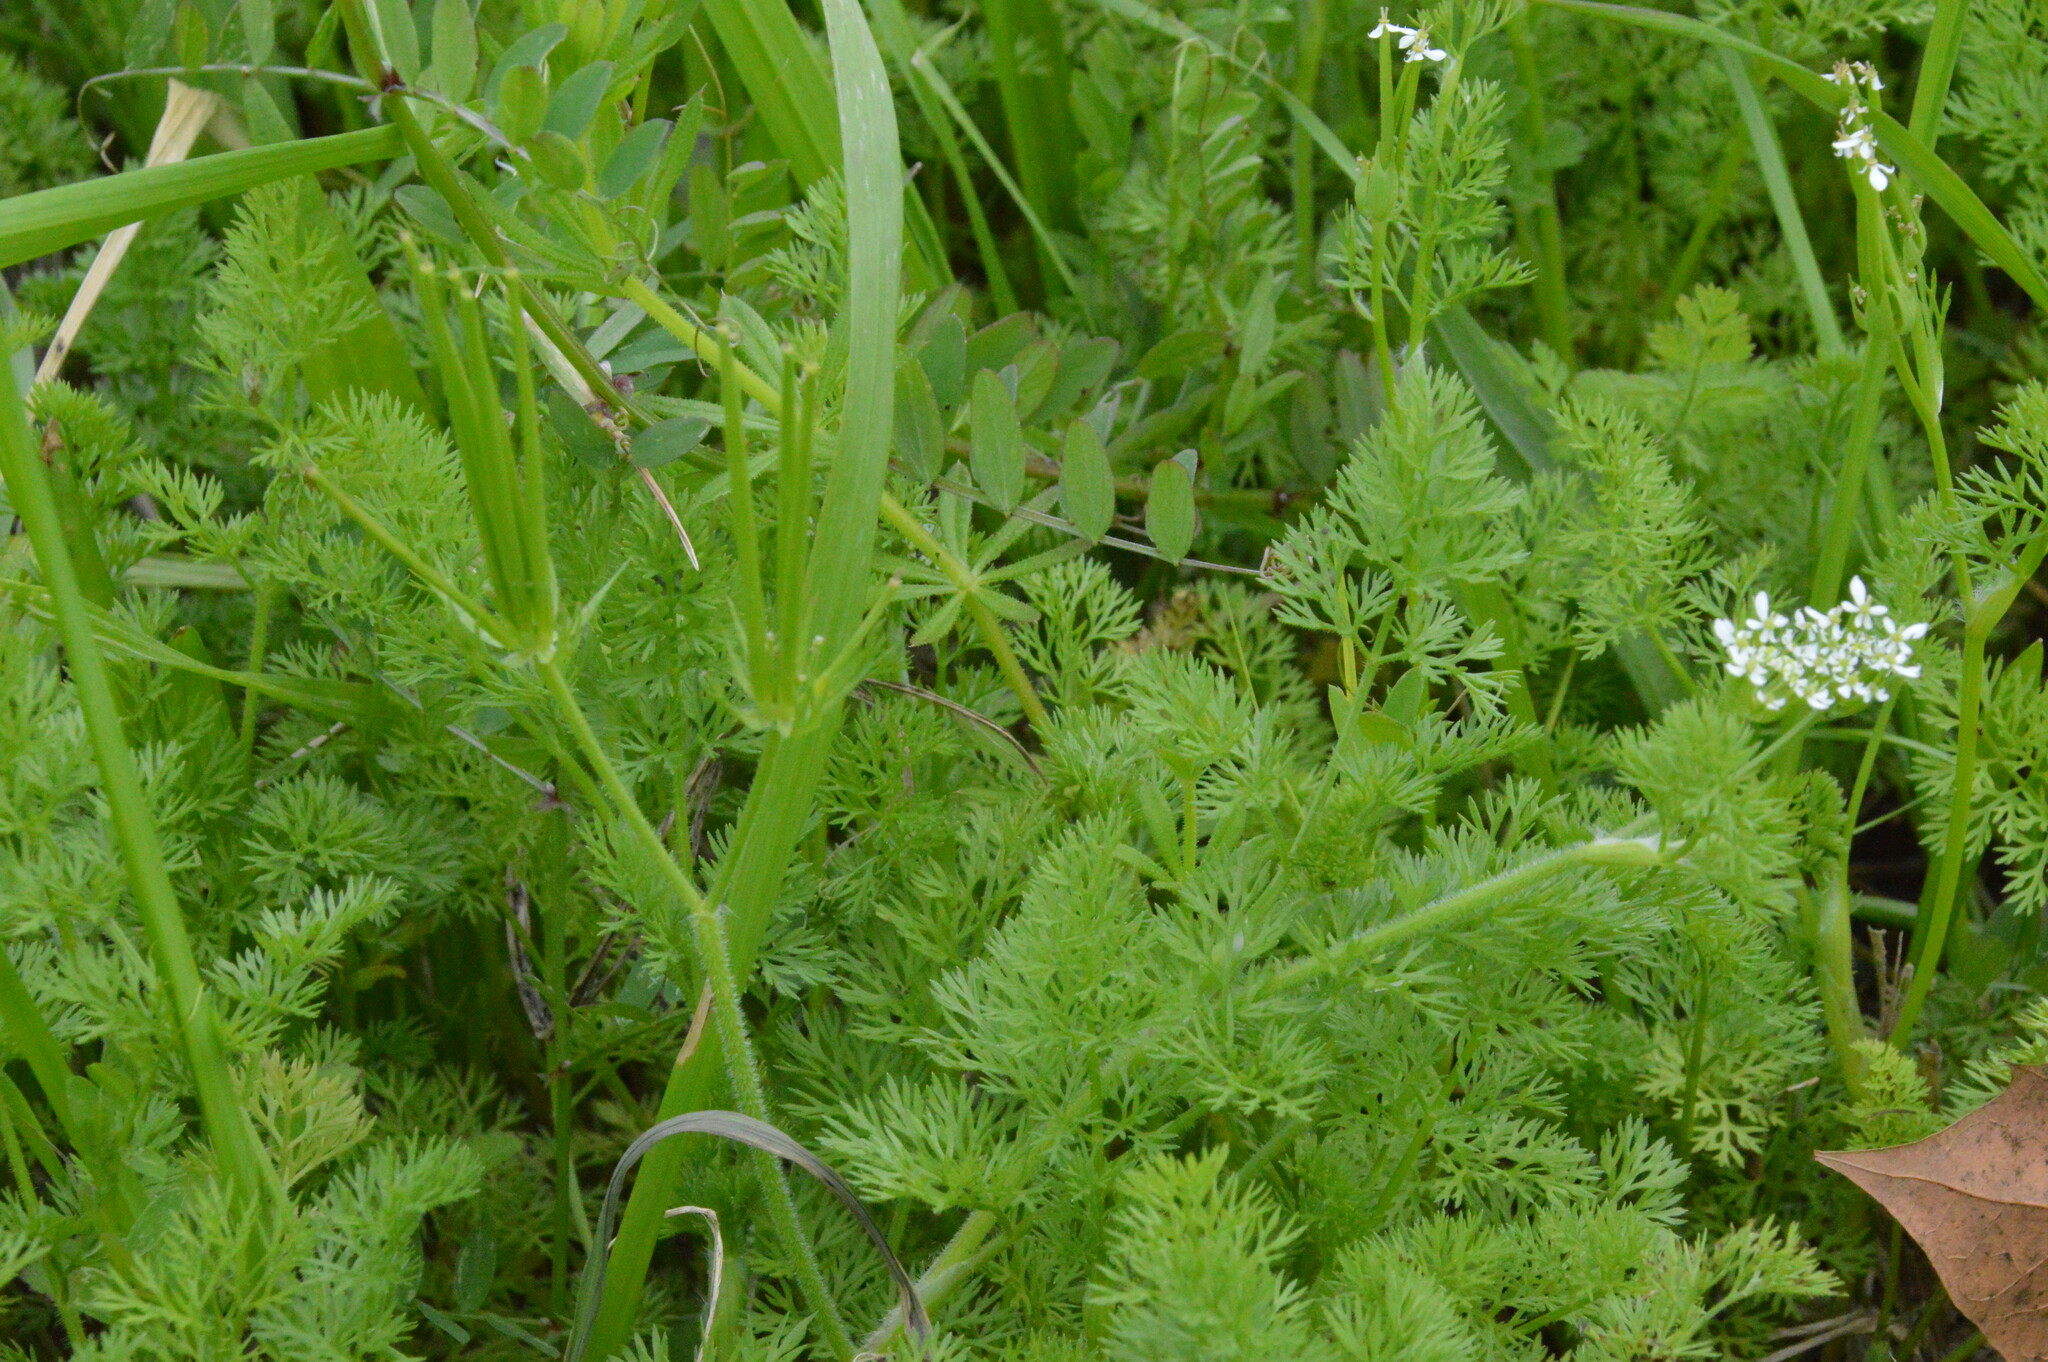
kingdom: Plantae
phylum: Tracheophyta
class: Magnoliopsida
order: Apiales
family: Apiaceae
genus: Scandix
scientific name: Scandix pecten-veneris
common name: Shepherd's-needle
